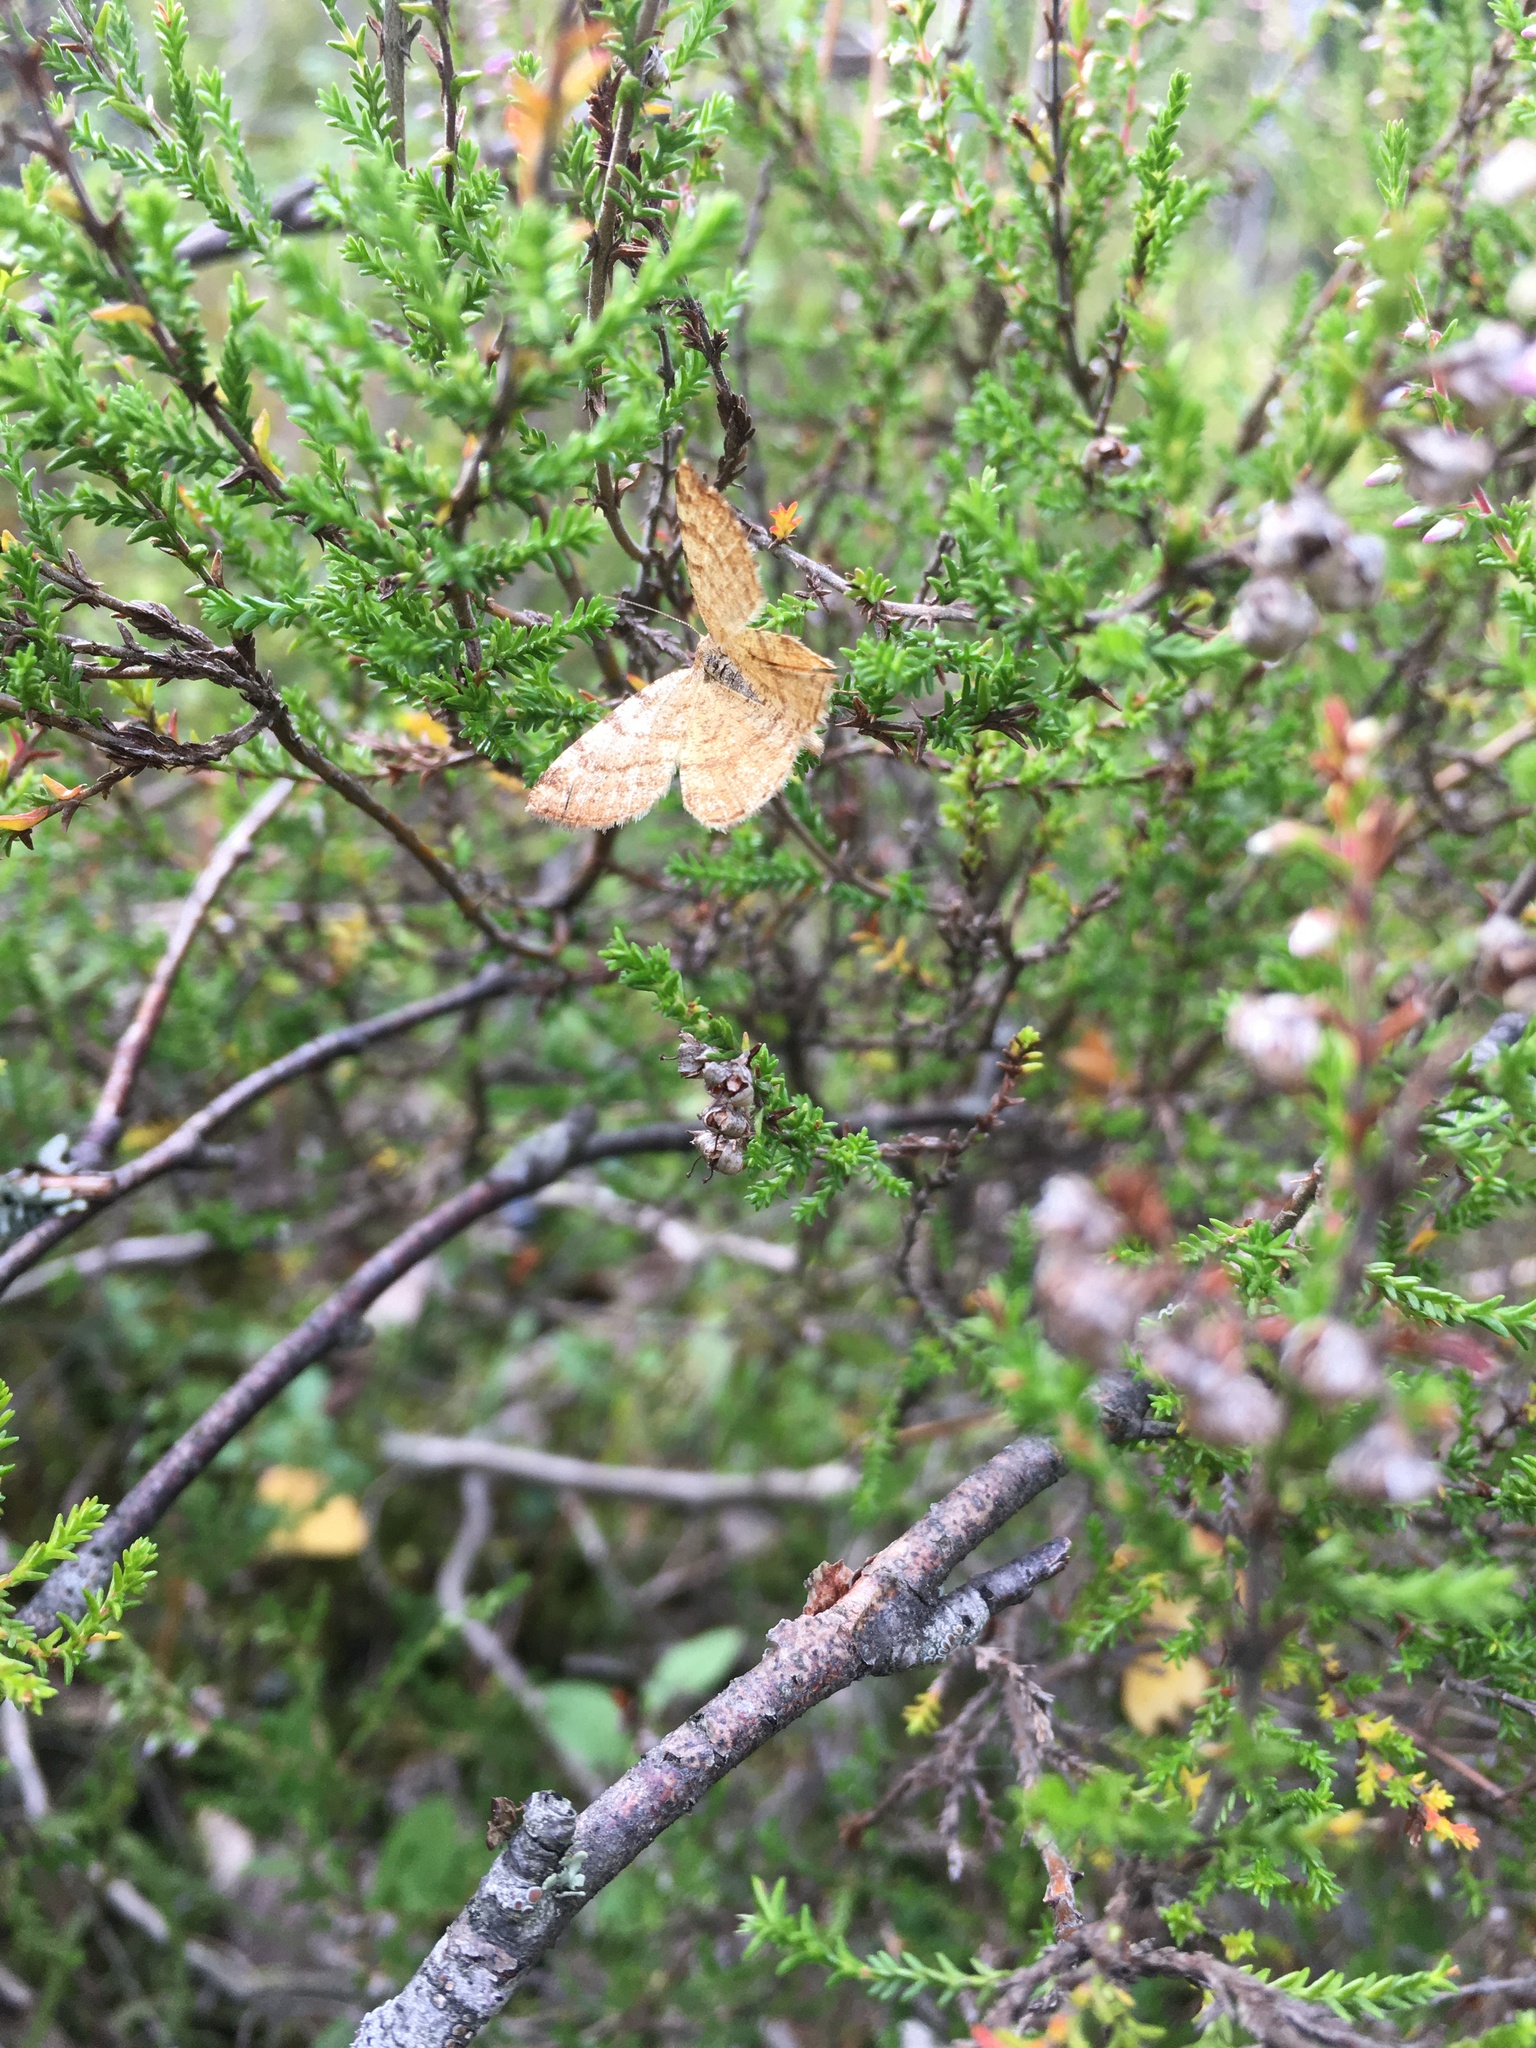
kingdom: Animalia
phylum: Arthropoda
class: Insecta
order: Lepidoptera
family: Geometridae
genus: Macaria
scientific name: Macaria brunneata
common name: Rannoch looper
